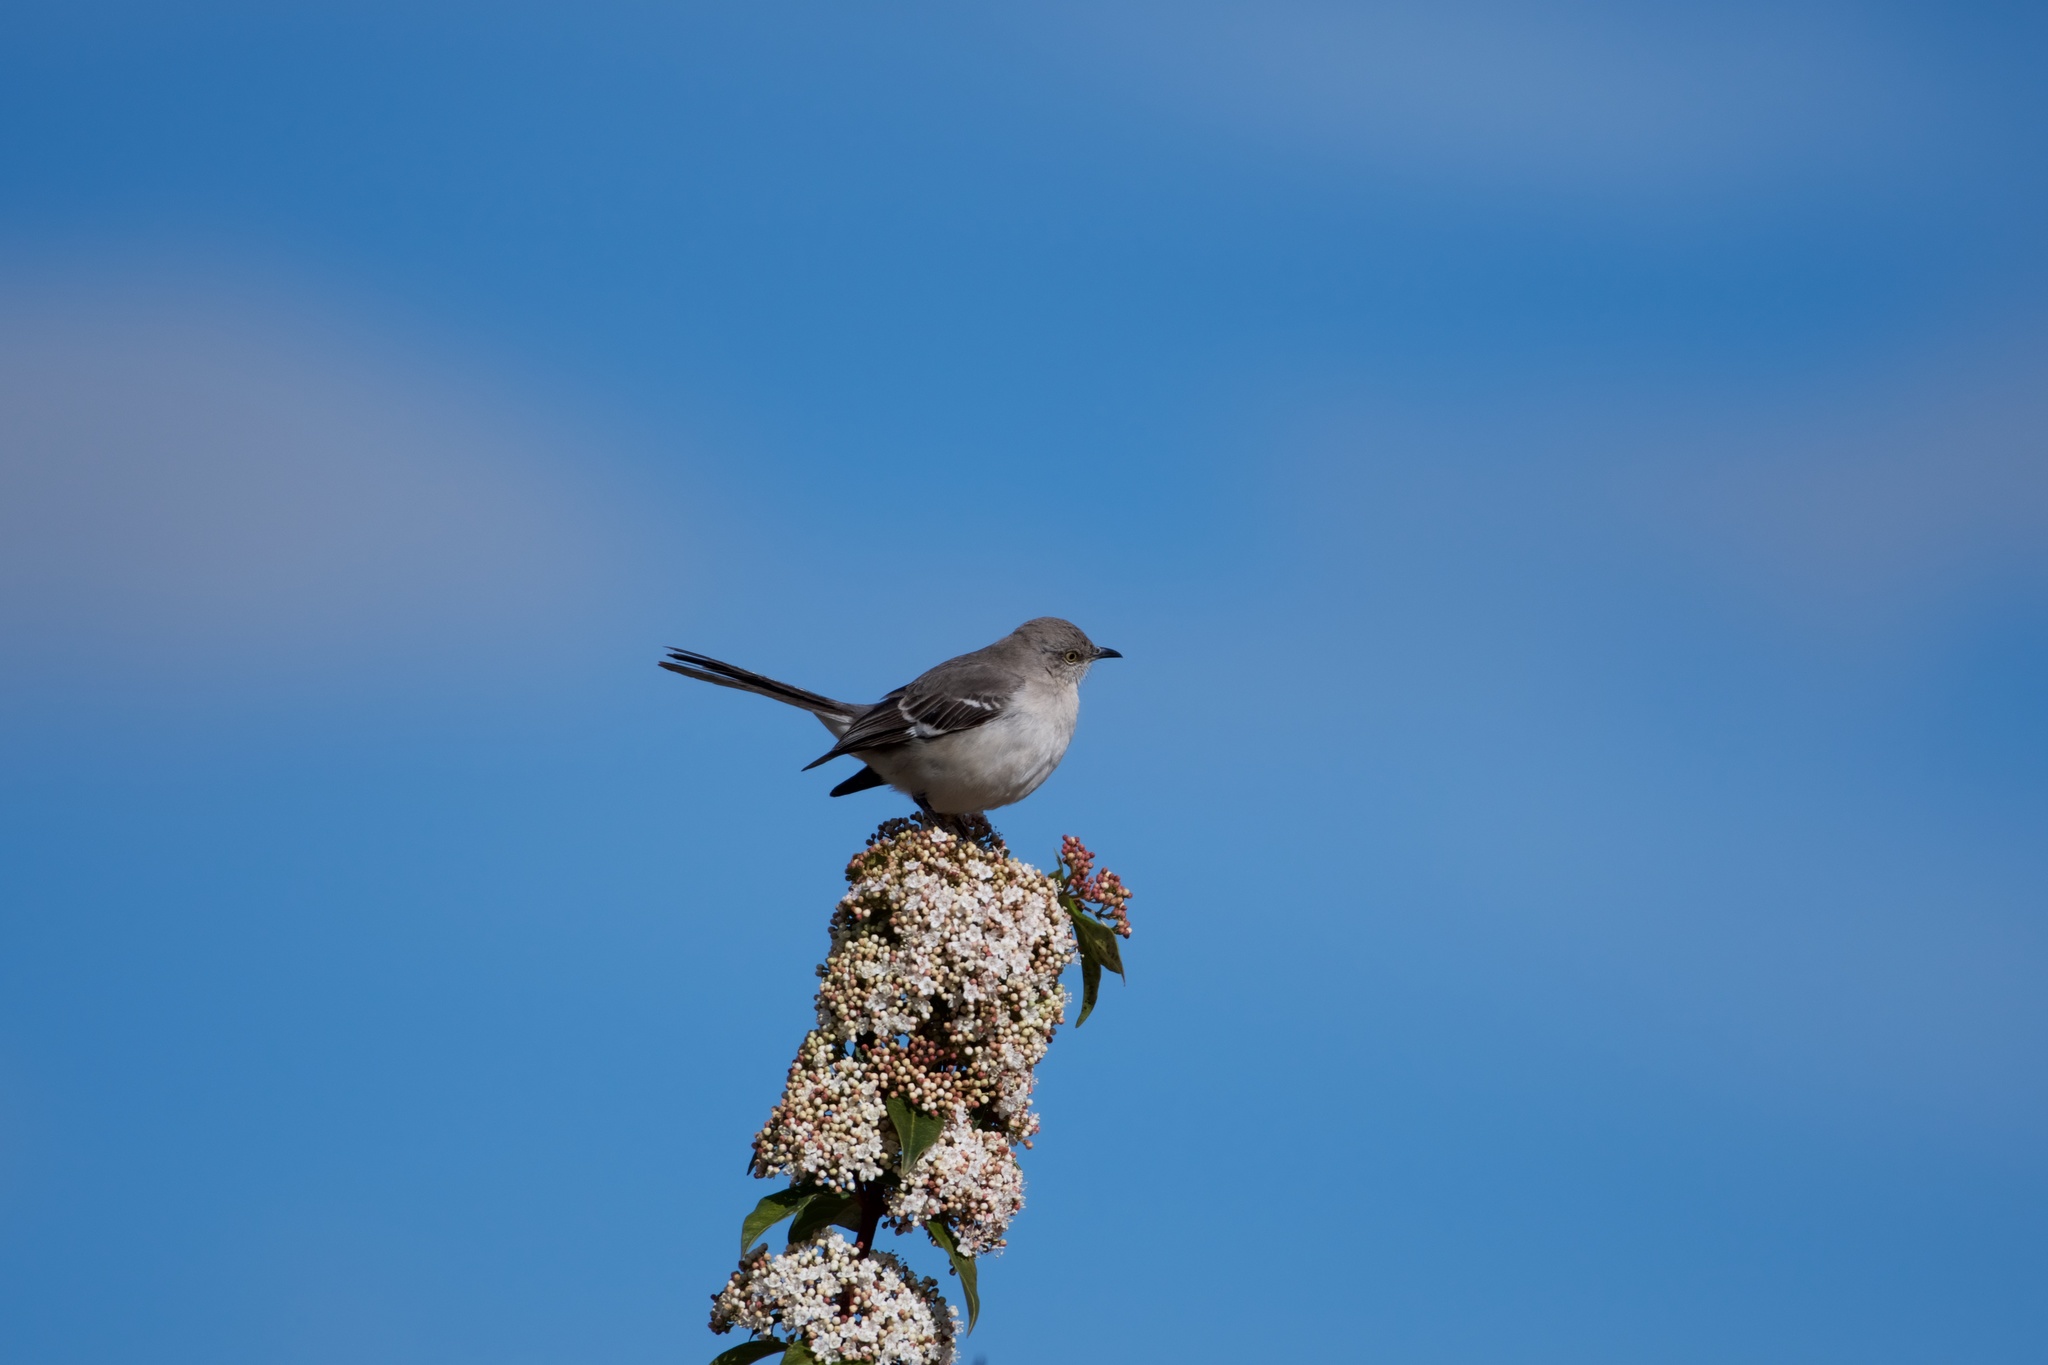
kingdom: Animalia
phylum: Chordata
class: Aves
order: Passeriformes
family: Mimidae
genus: Mimus
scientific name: Mimus polyglottos
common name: Northern mockingbird
